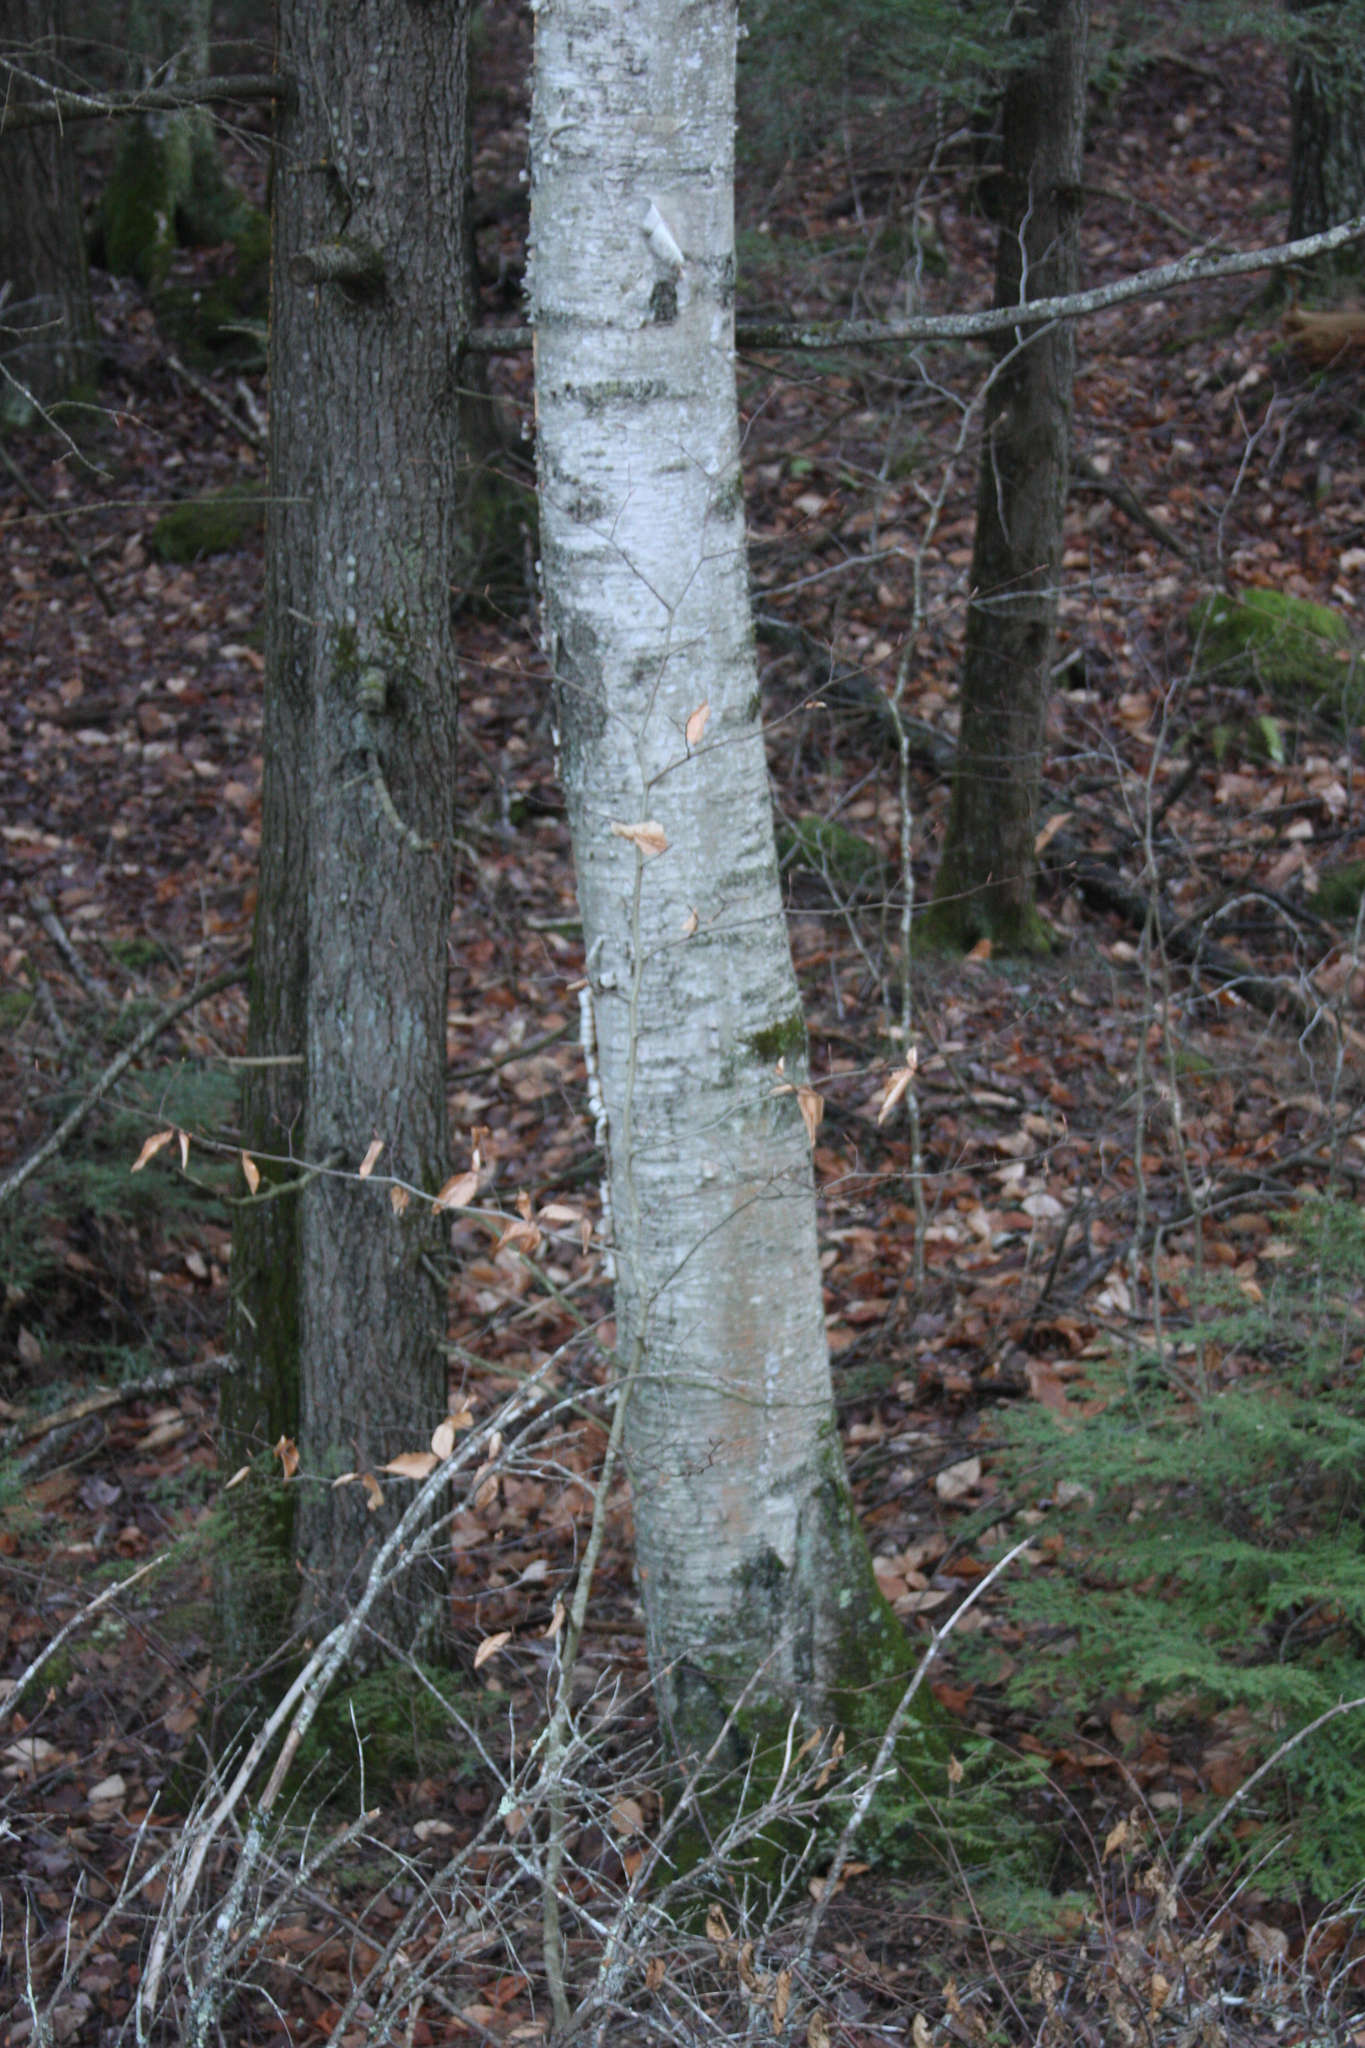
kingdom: Plantae
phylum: Tracheophyta
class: Magnoliopsida
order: Fagales
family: Fagaceae
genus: Fagus
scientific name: Fagus grandifolia
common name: American beech
